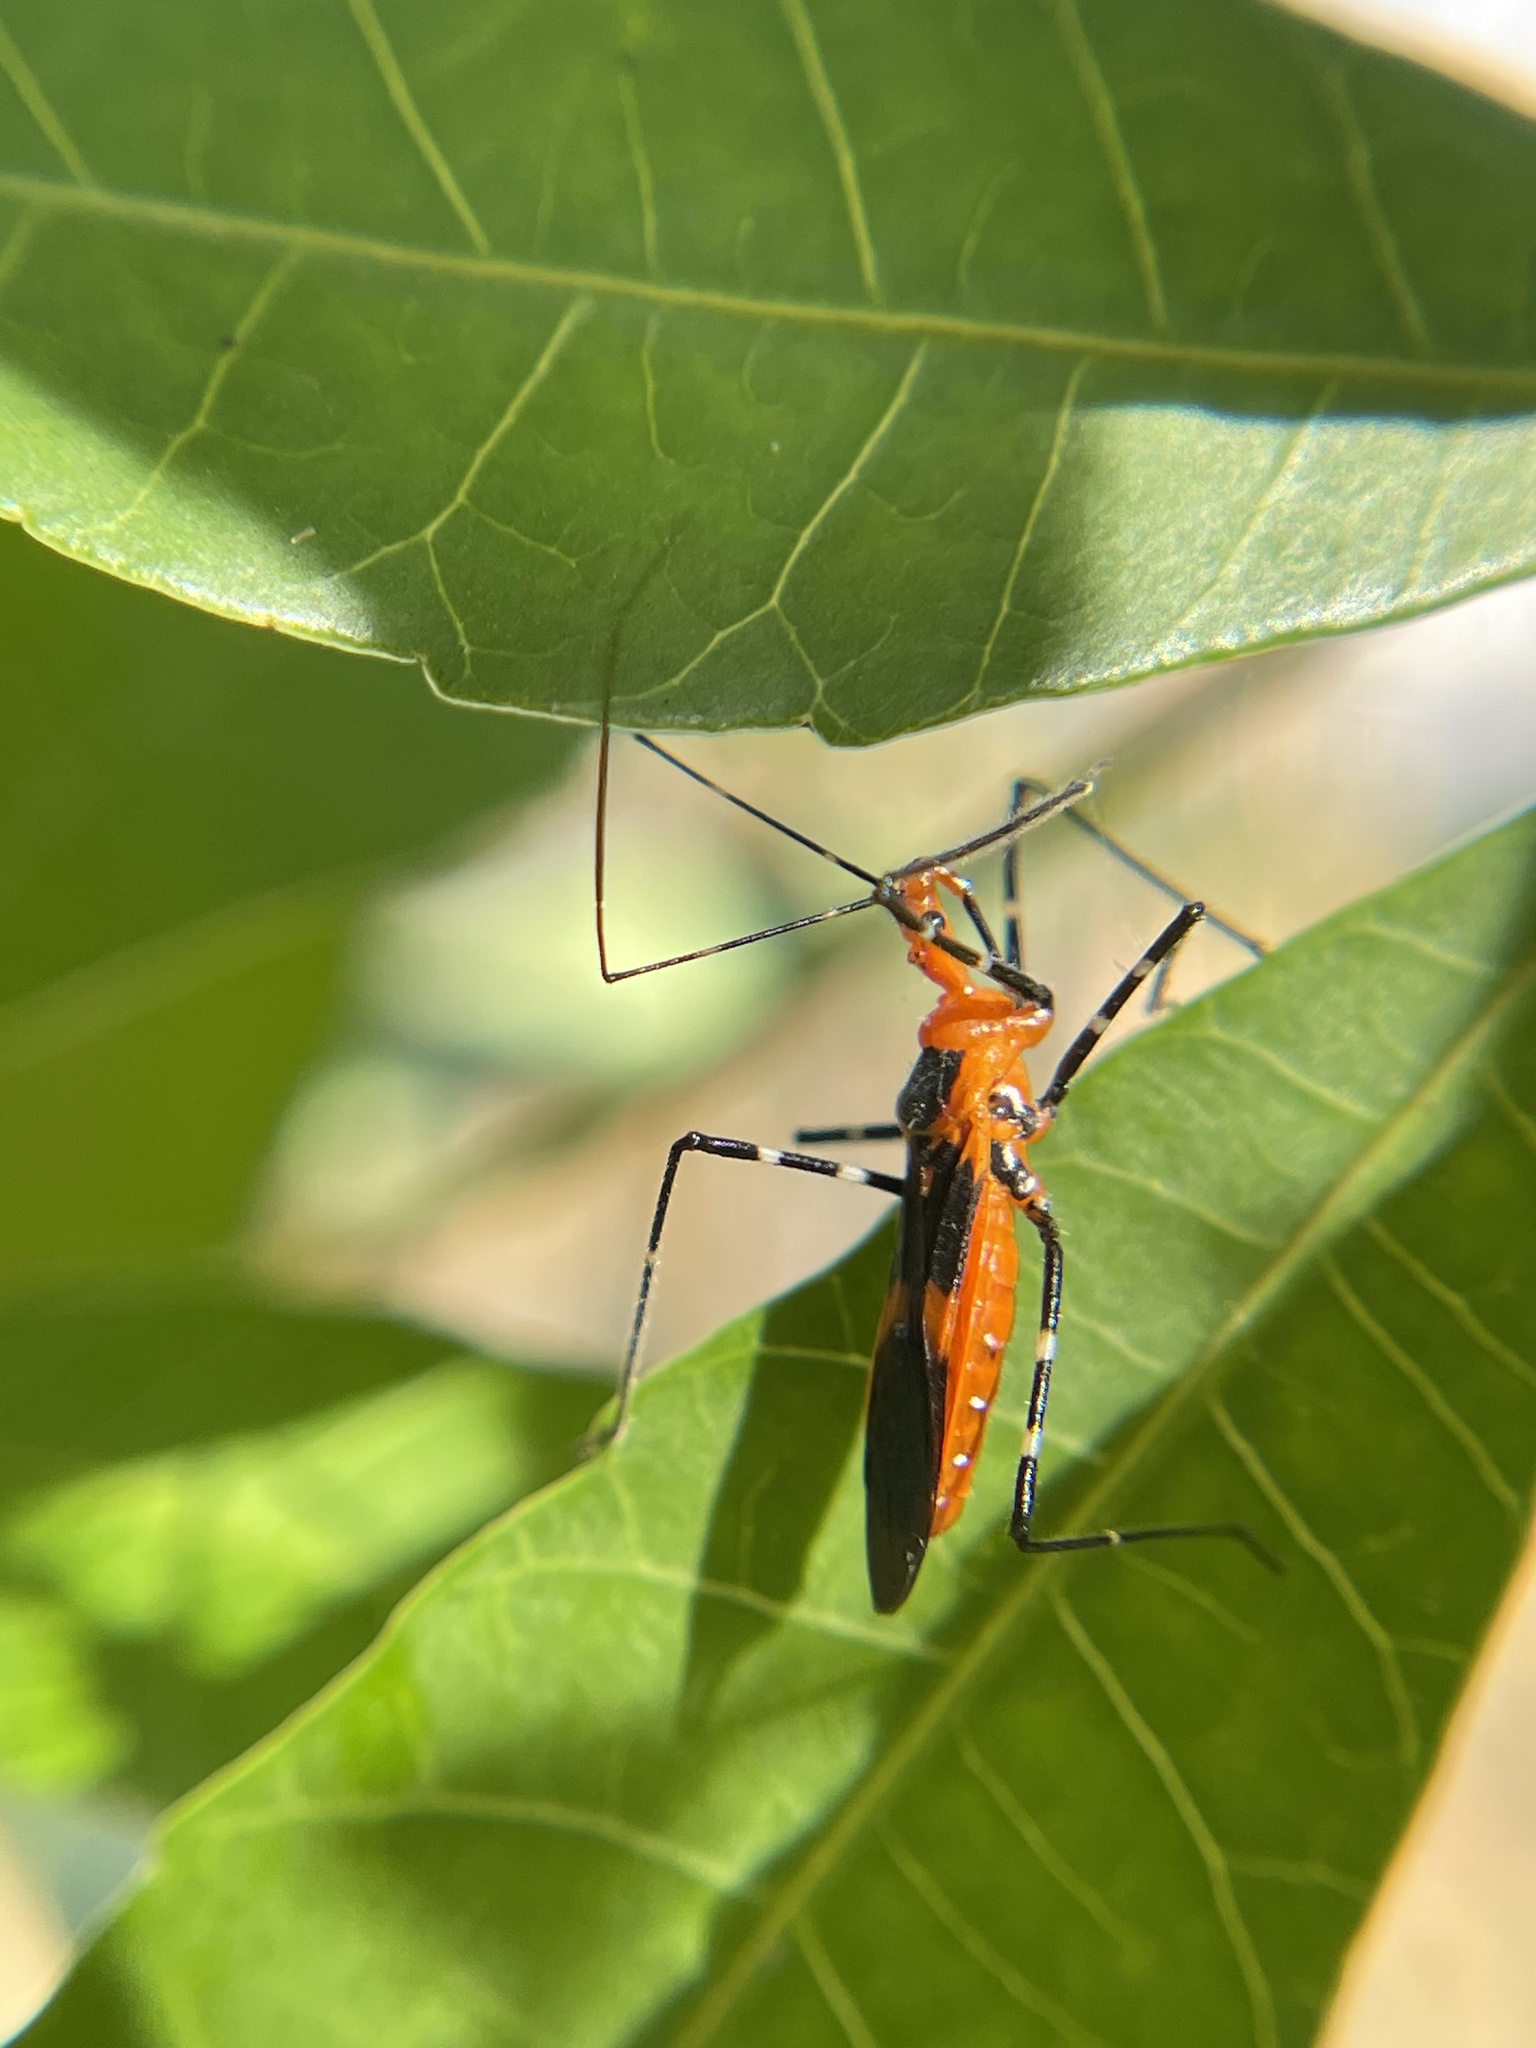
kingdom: Animalia
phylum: Arthropoda
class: Insecta
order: Hemiptera
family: Reduviidae
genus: Zelus
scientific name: Zelus longipes
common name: Milkweed assassin bug
